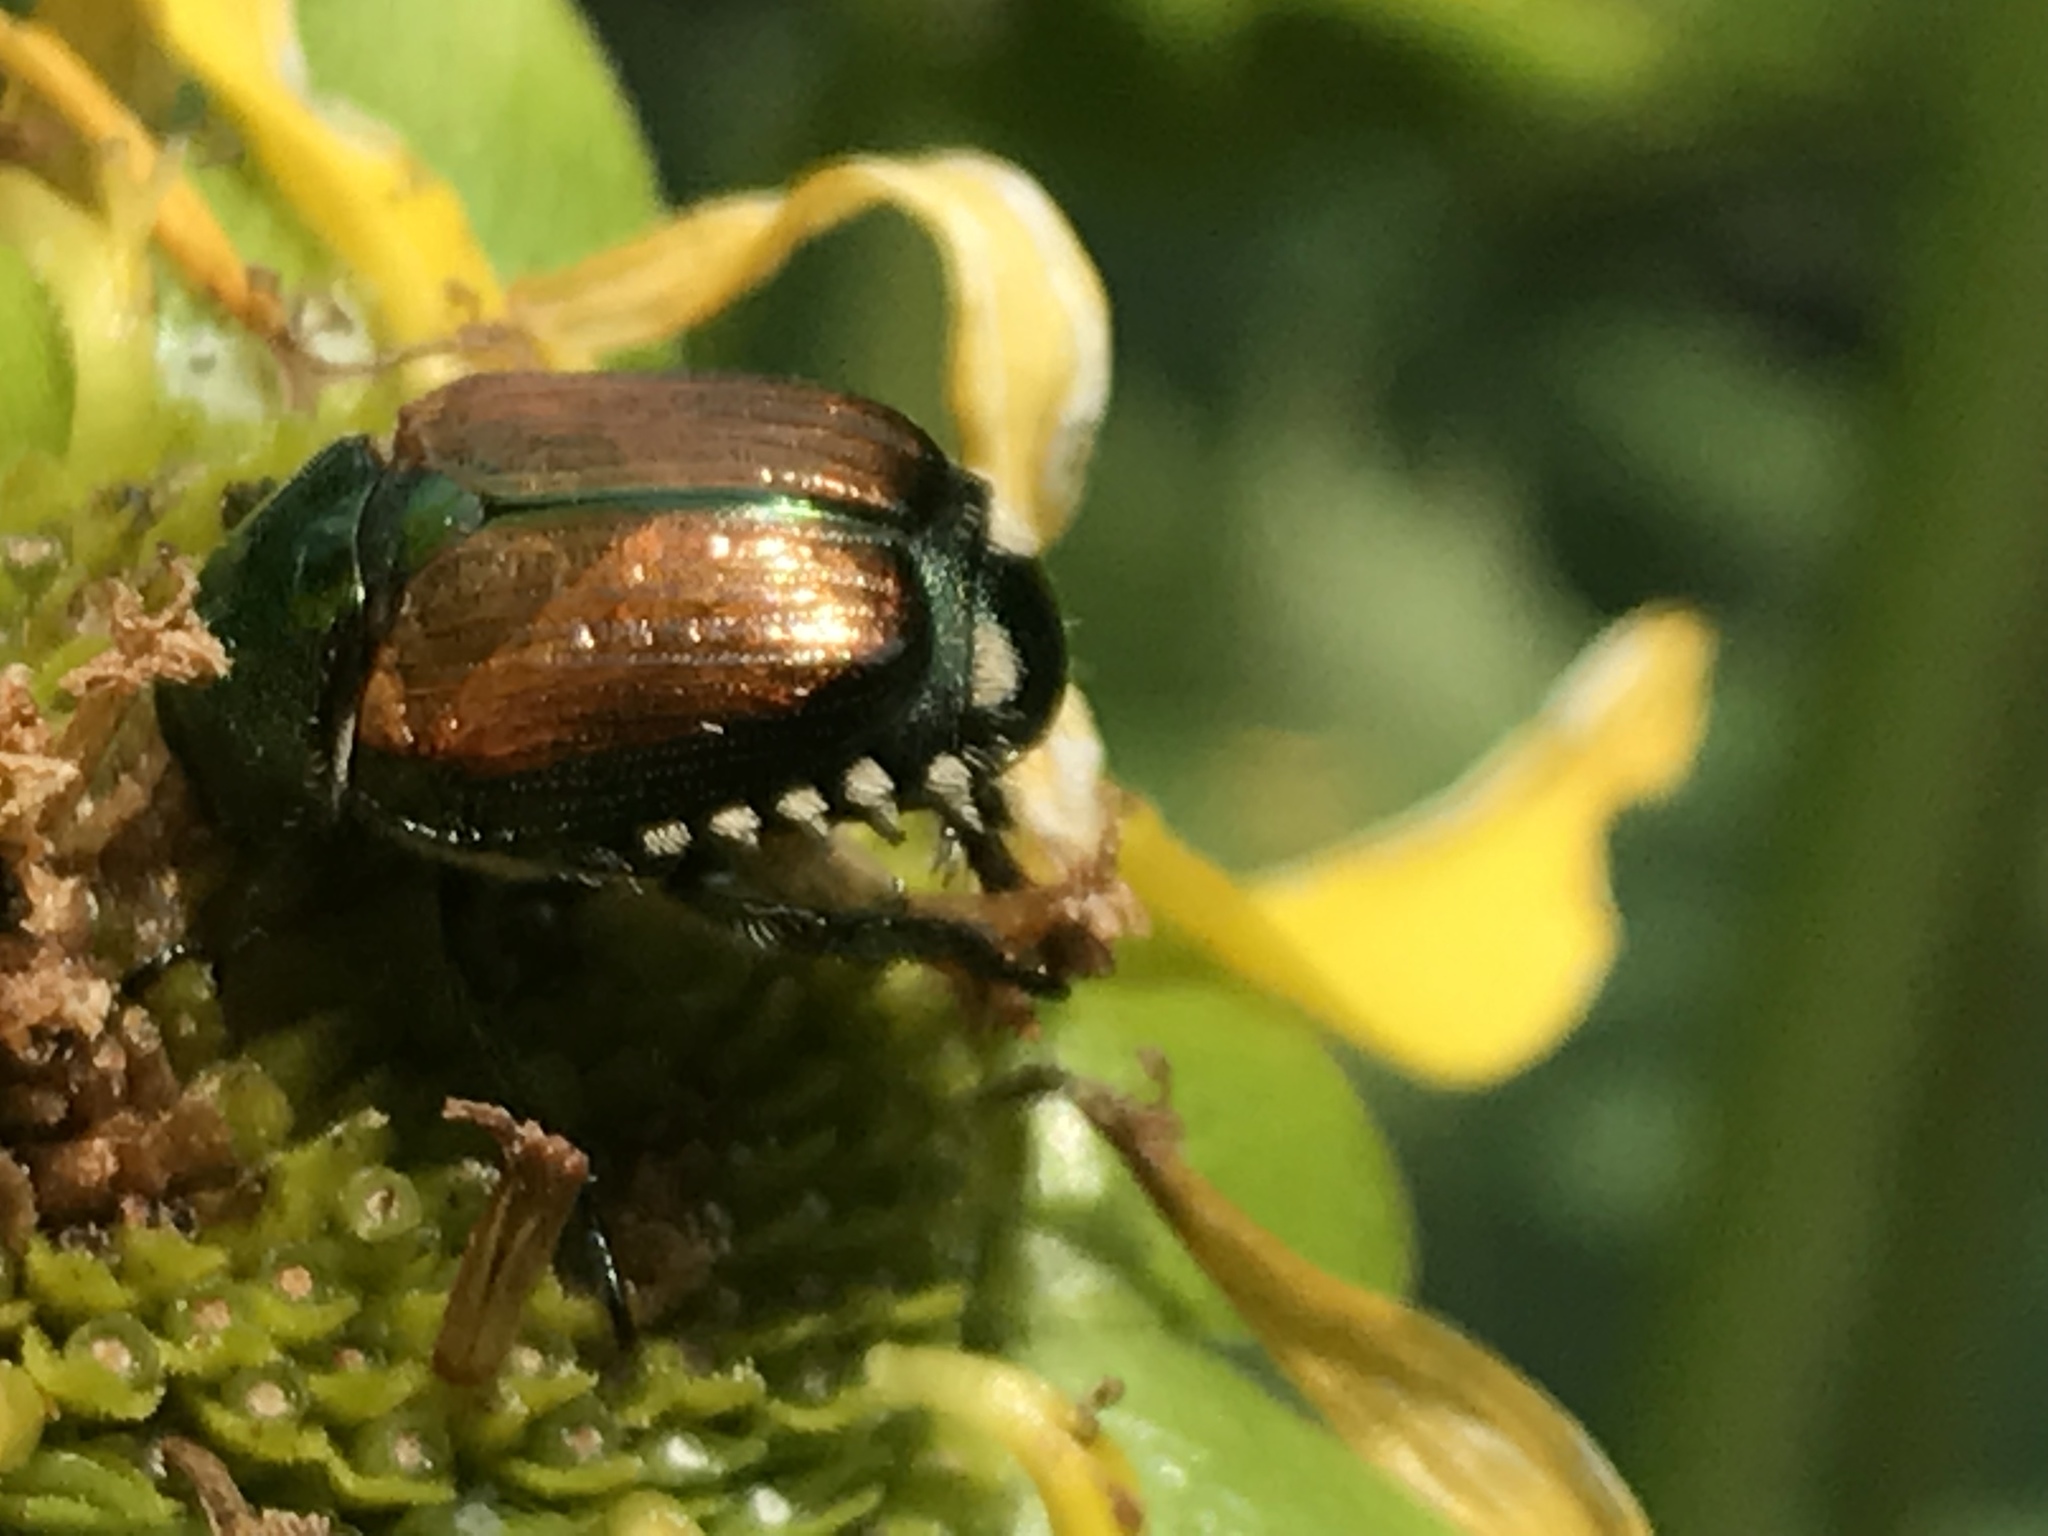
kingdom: Animalia
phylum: Arthropoda
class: Insecta
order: Coleoptera
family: Scarabaeidae
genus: Popillia
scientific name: Popillia japonica
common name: Japanese beetle
